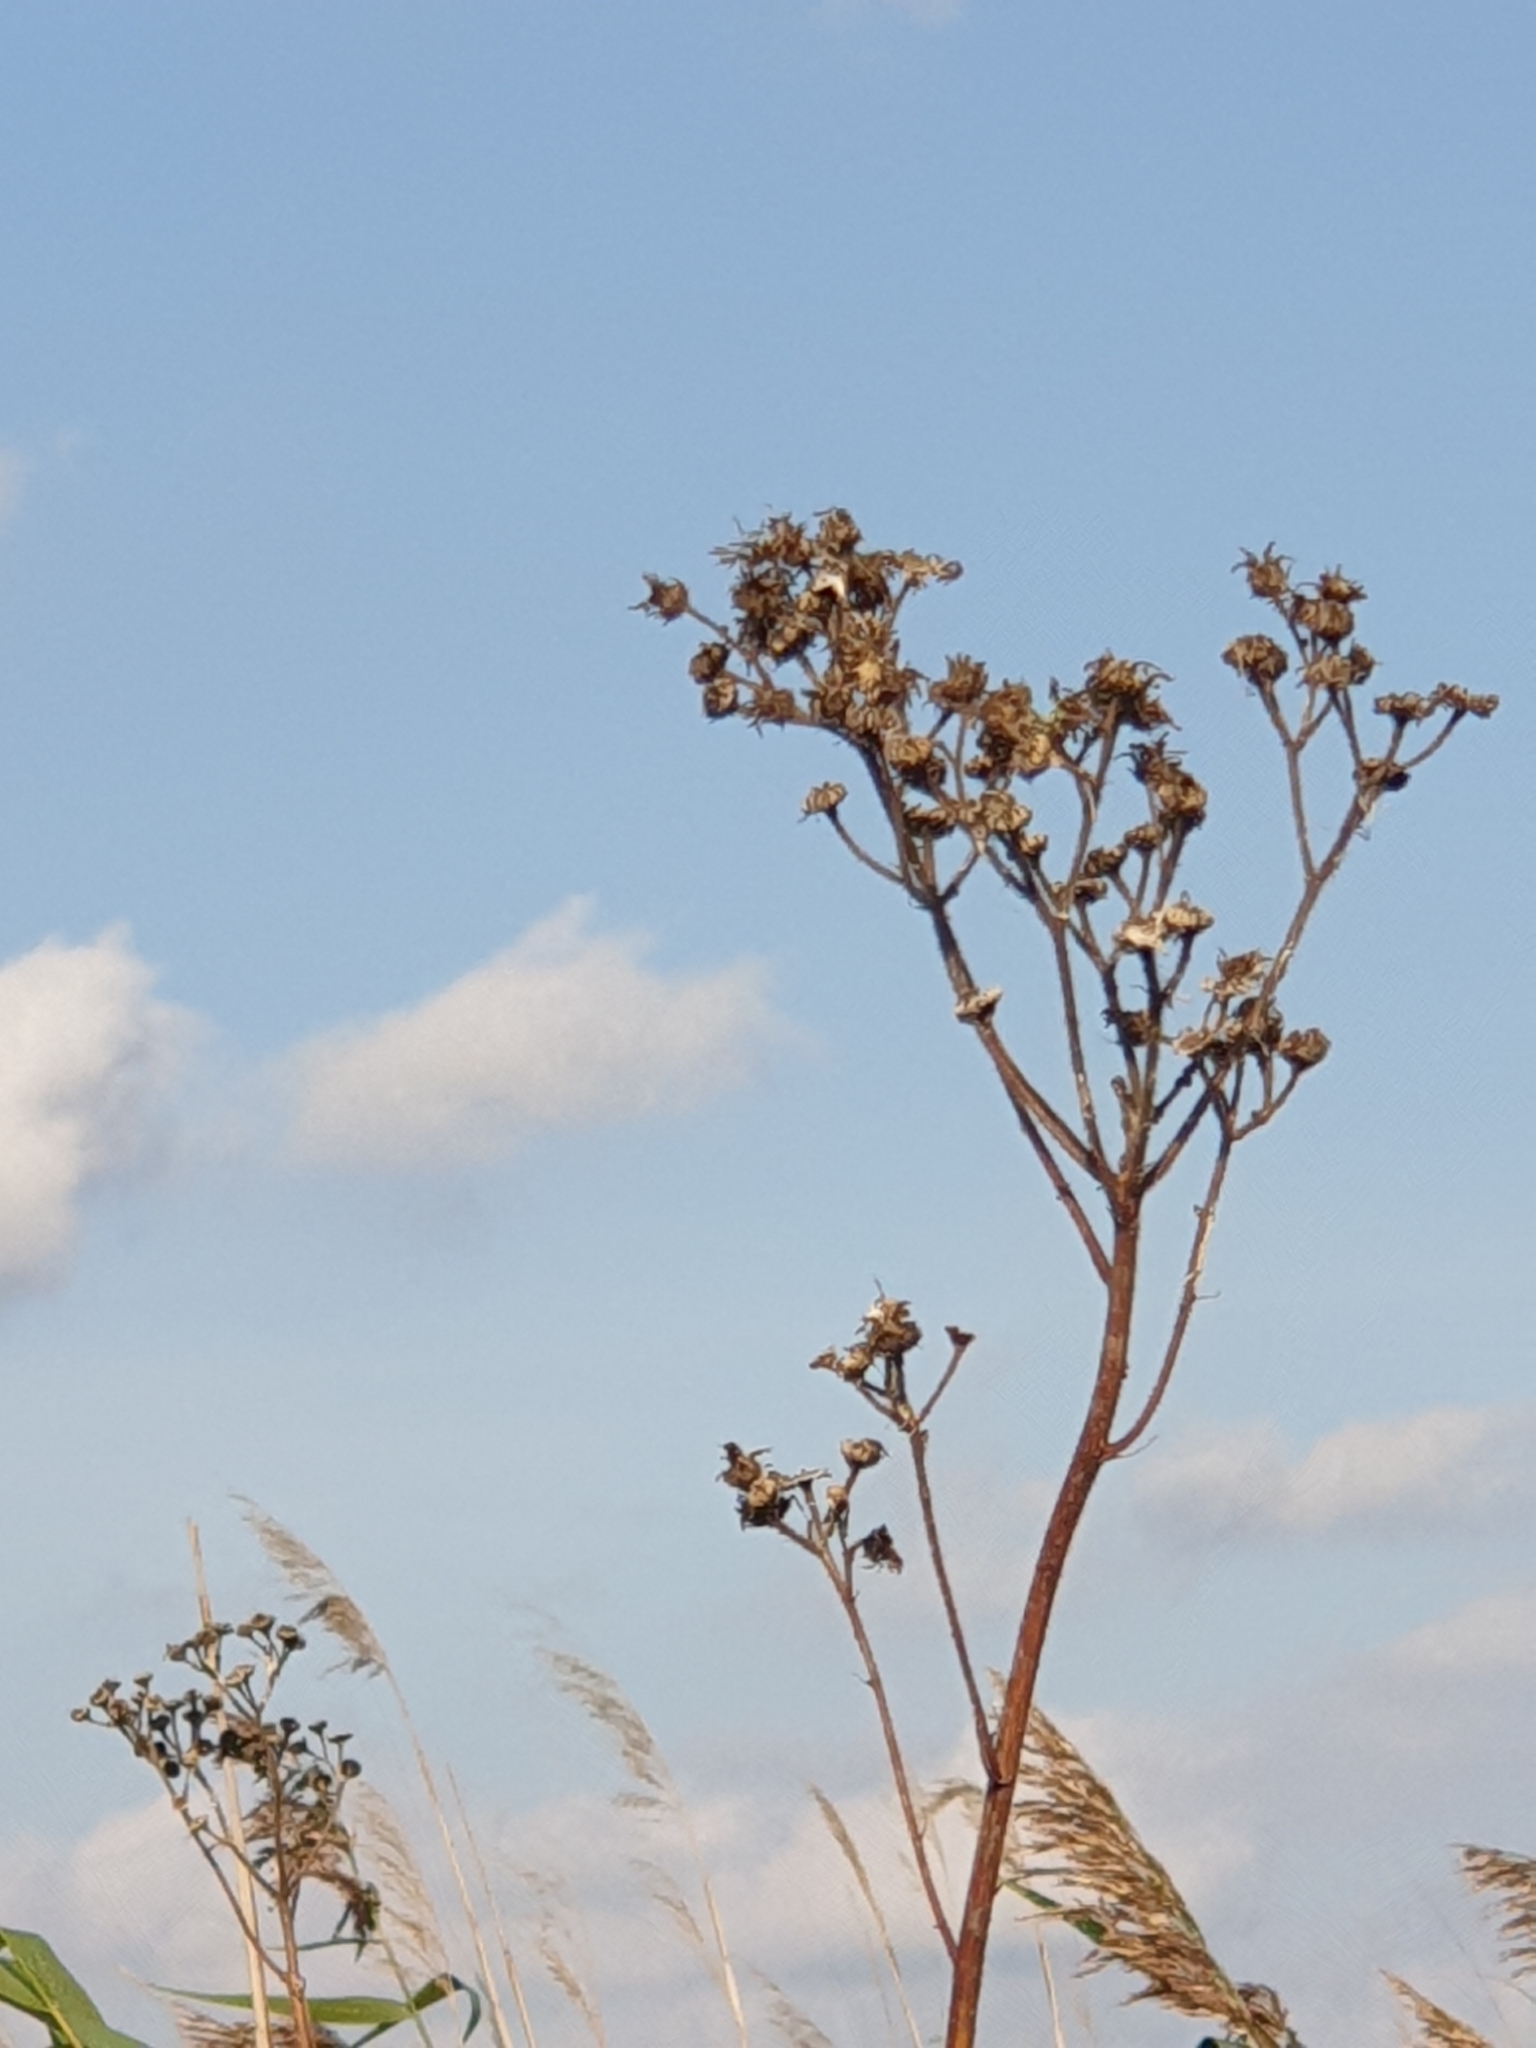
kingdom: Plantae
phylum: Tracheophyta
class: Magnoliopsida
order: Asterales
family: Asteraceae
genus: Sonchus
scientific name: Sonchus palustris
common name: Marsh sow-thistle
